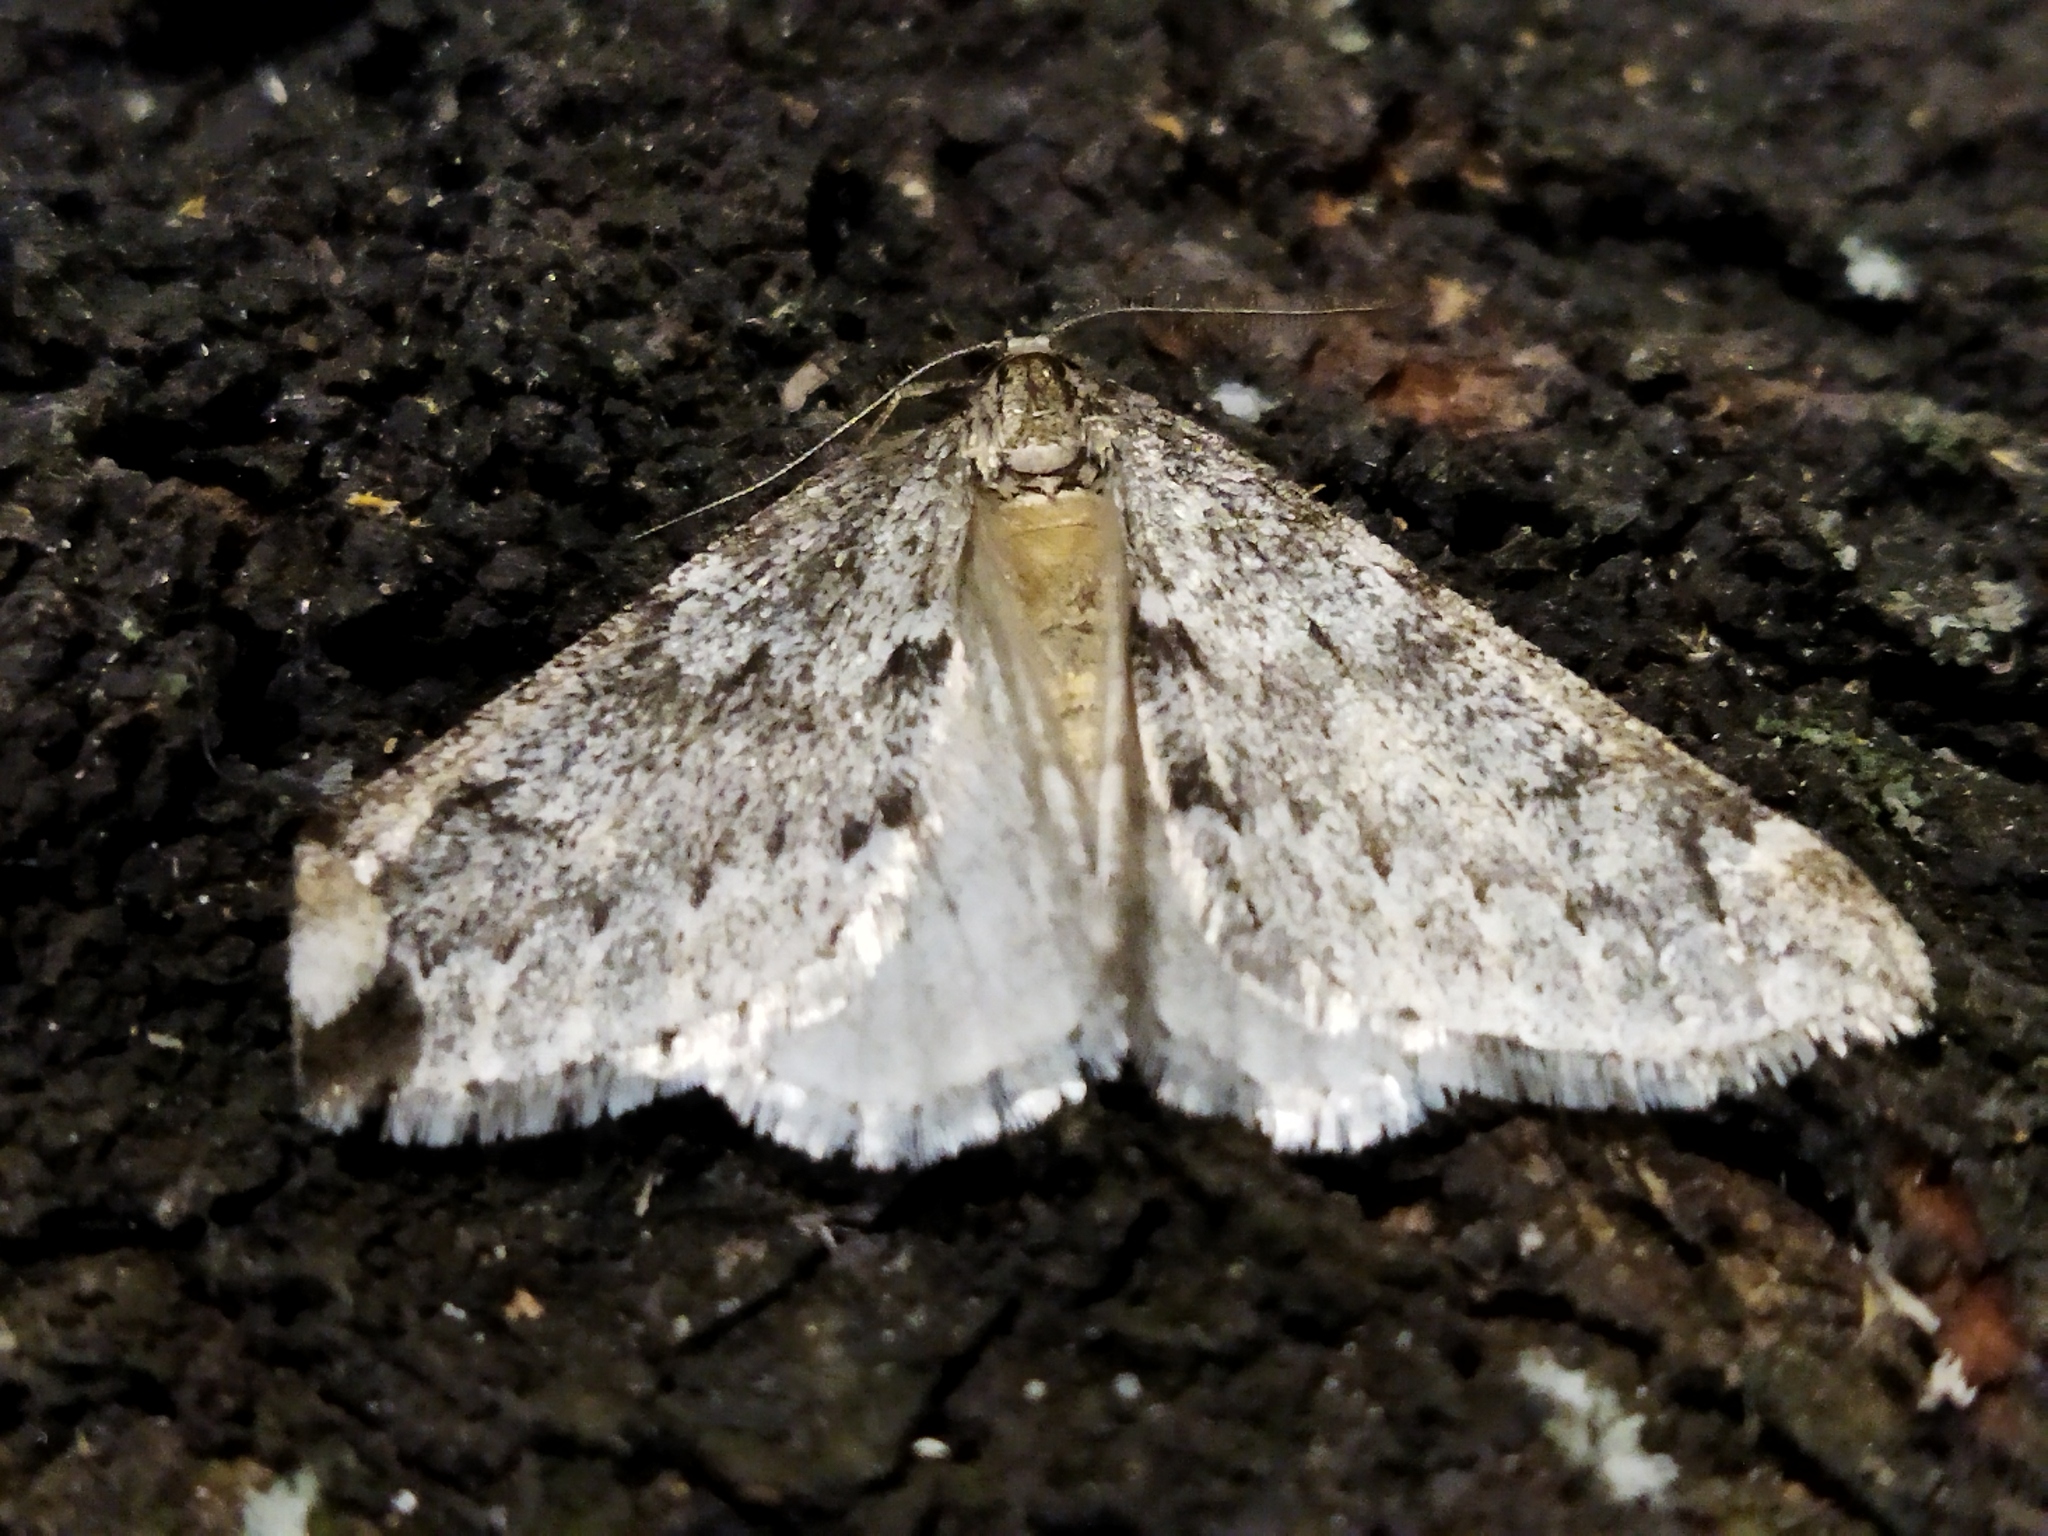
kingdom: Animalia
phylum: Arthropoda
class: Insecta
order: Lepidoptera
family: Geometridae
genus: Alsophila
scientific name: Alsophila aescularia
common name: March moth
